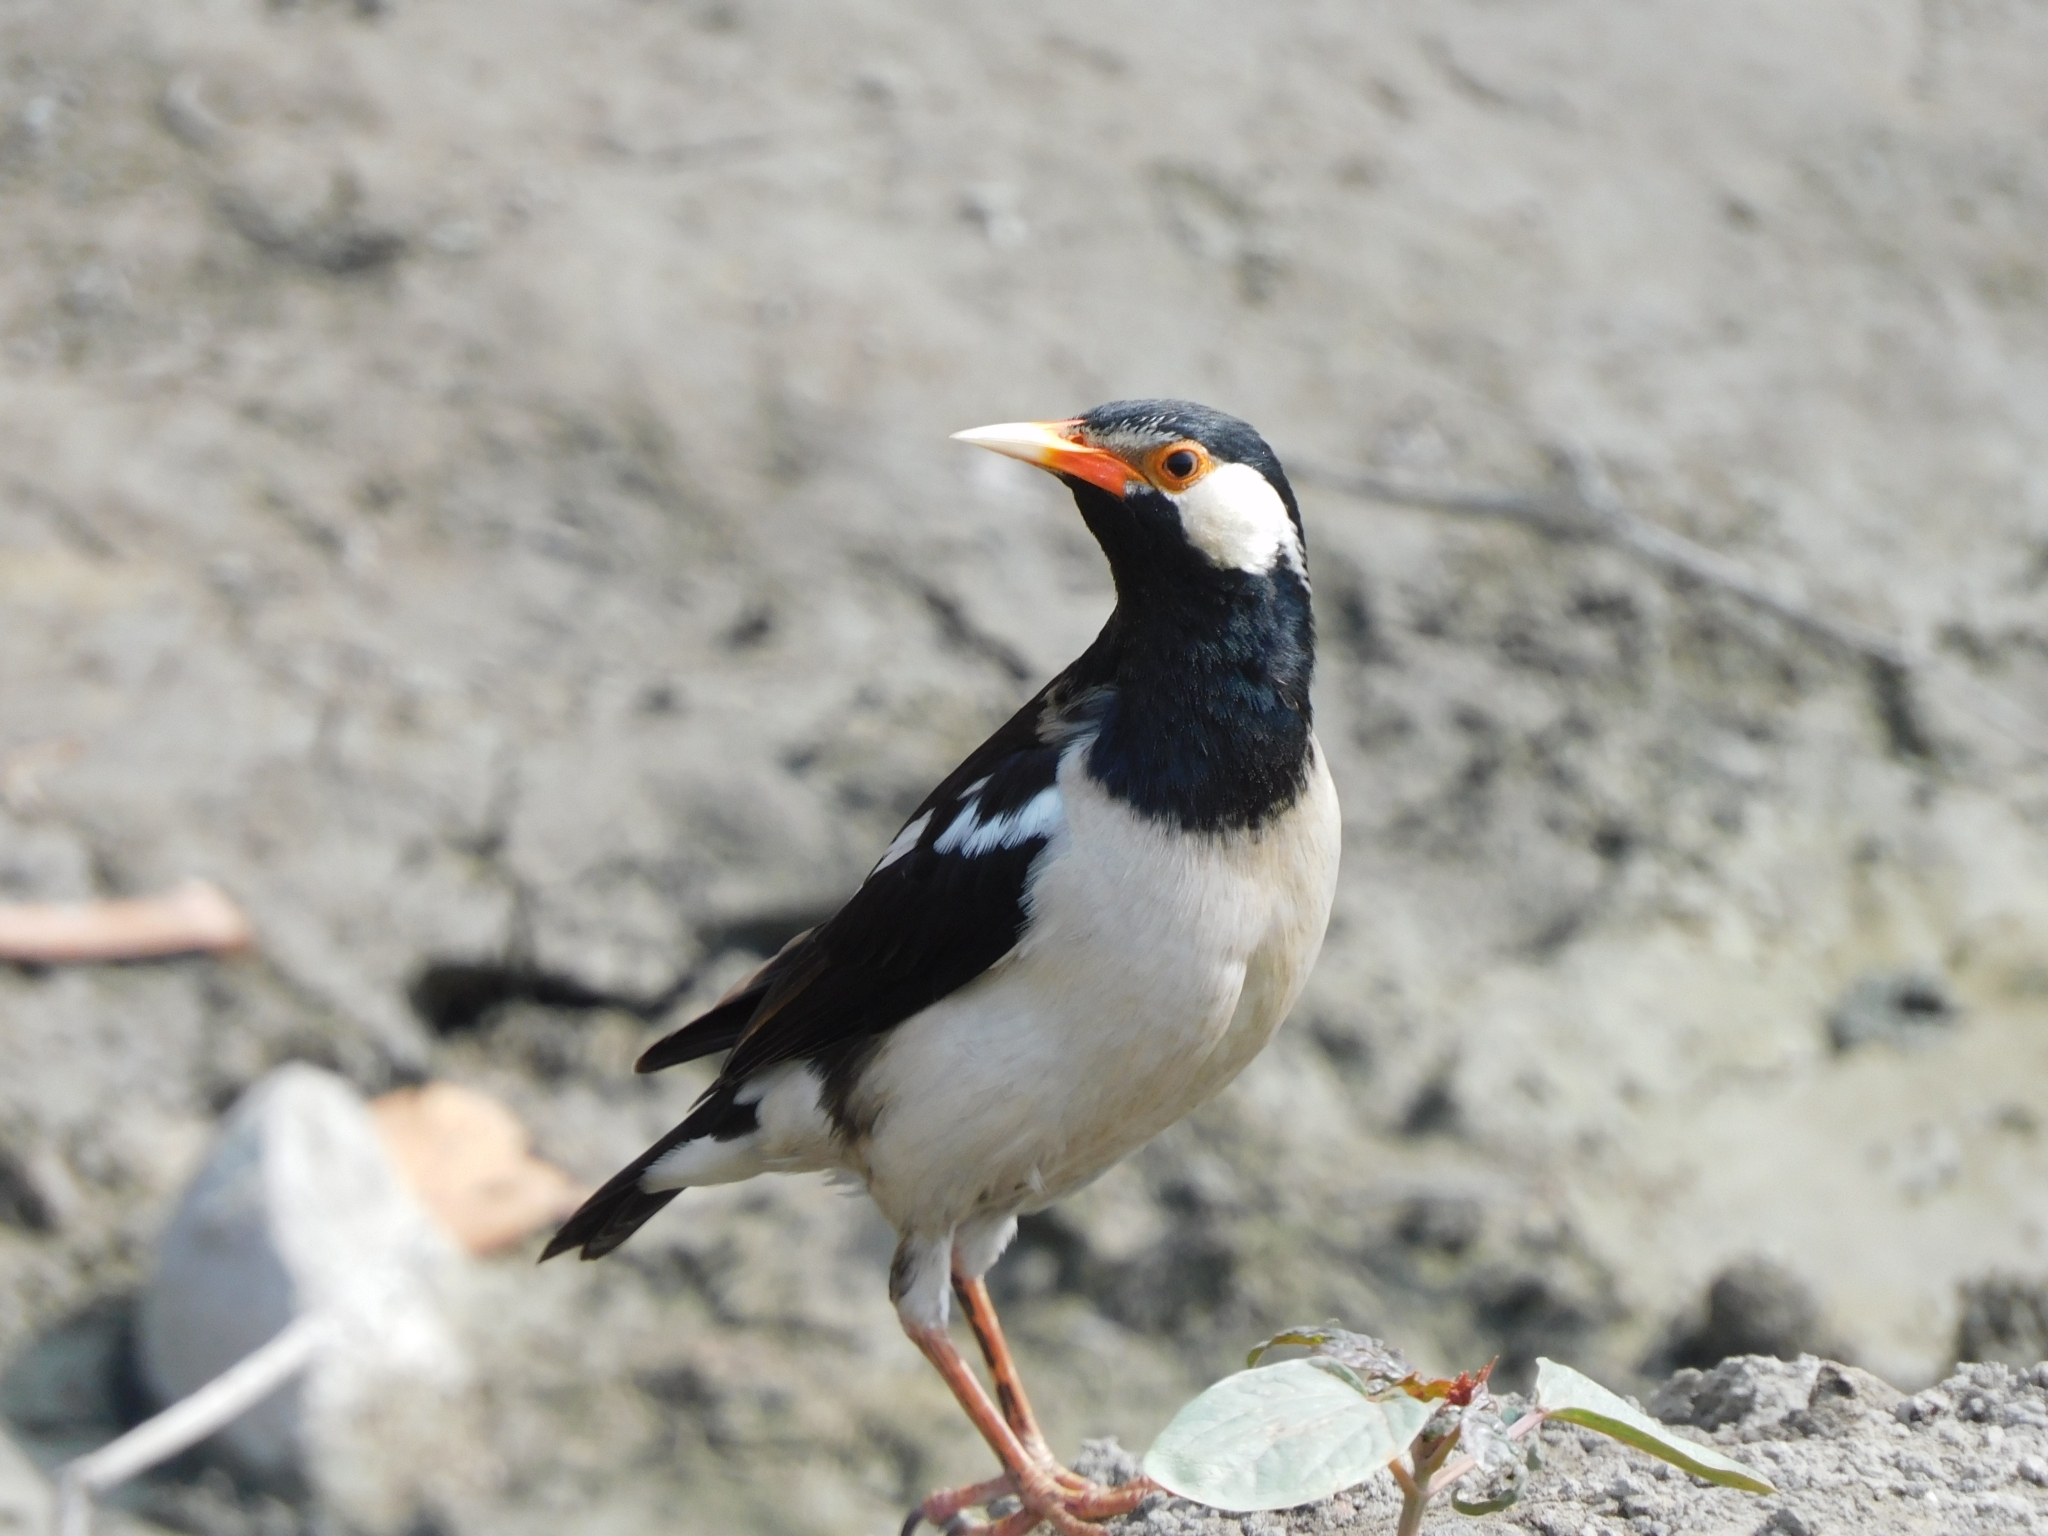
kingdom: Animalia
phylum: Chordata
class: Aves
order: Passeriformes
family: Sturnidae
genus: Gracupica
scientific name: Gracupica contra
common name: Pied myna
